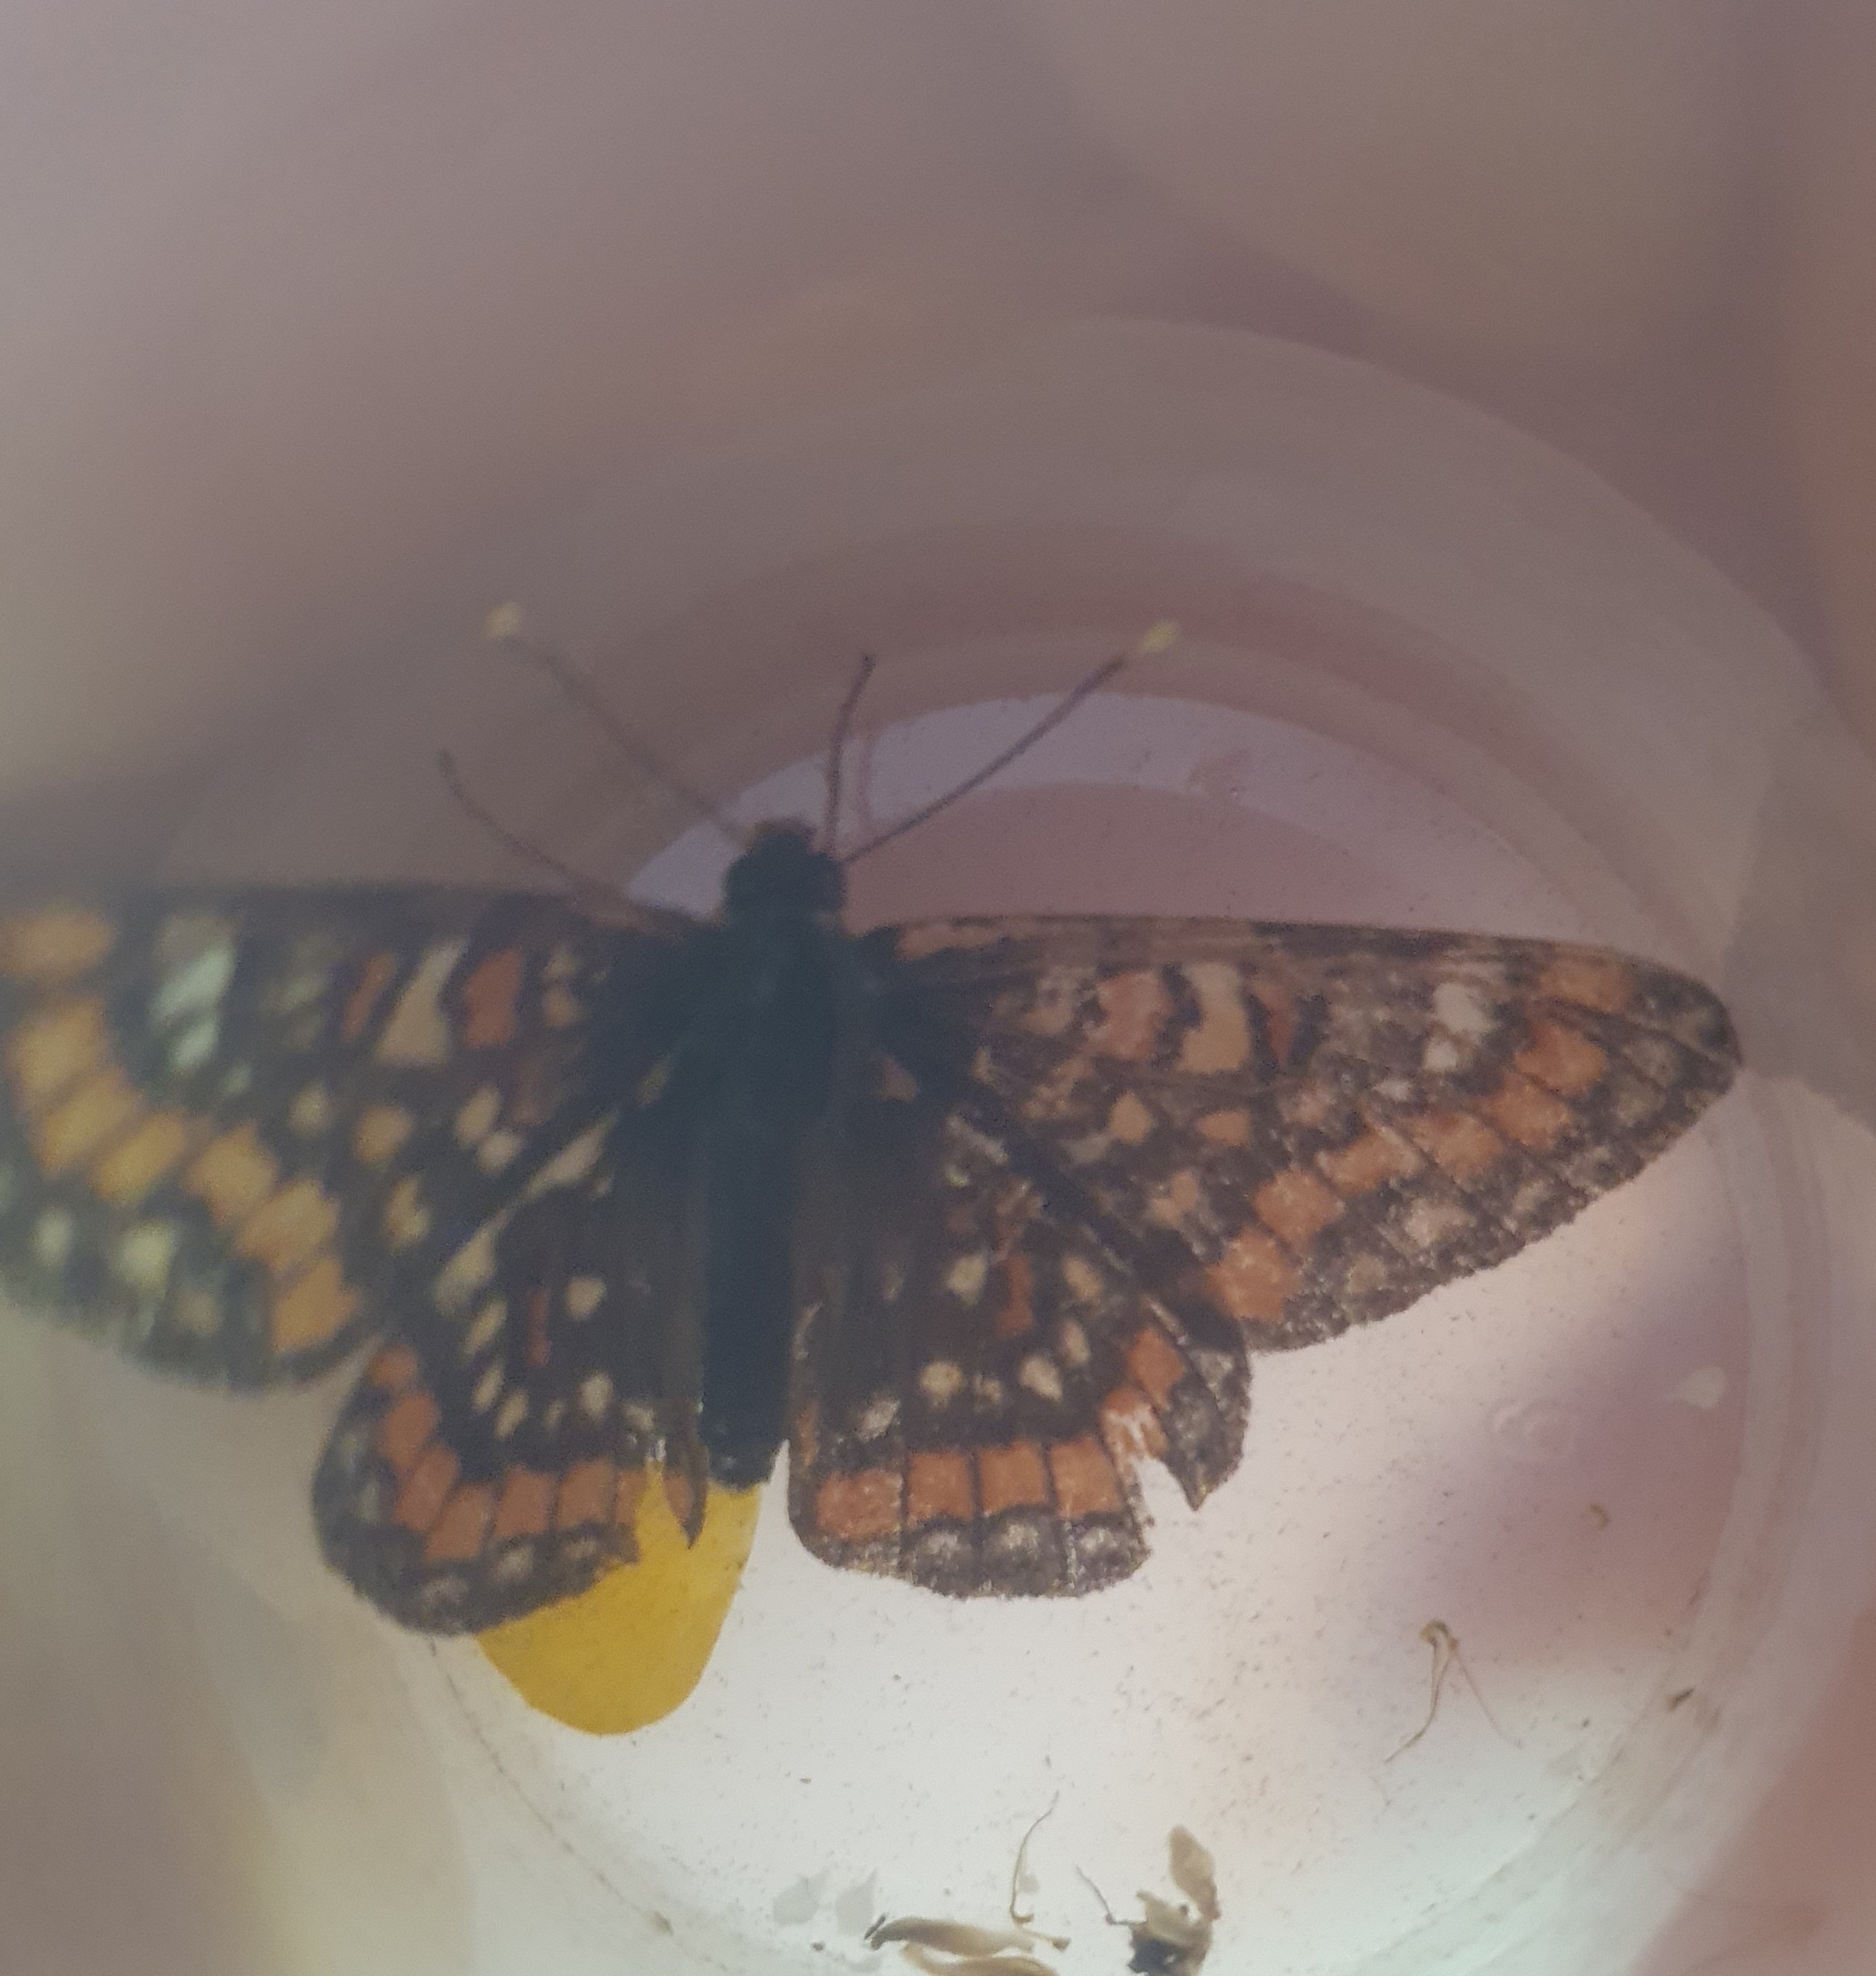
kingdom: Animalia
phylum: Arthropoda
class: Insecta
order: Lepidoptera
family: Nymphalidae
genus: Euphydryas
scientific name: Euphydryas maturna
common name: Scarce fritillary
